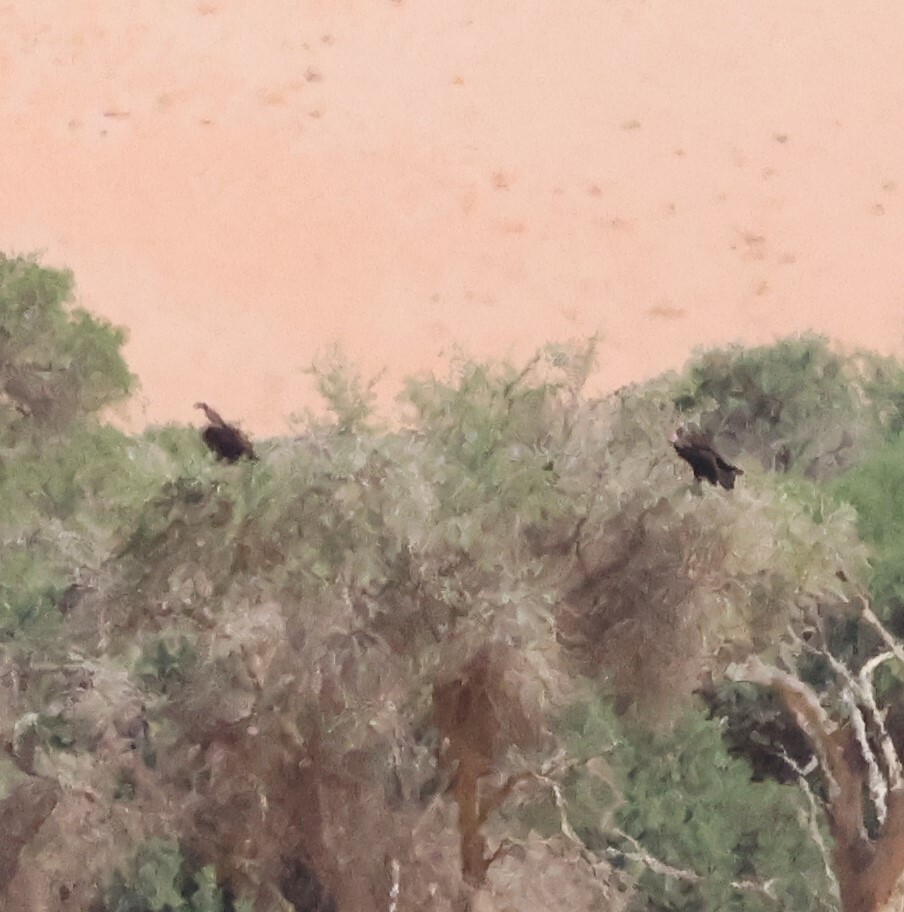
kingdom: Animalia
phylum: Chordata
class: Aves
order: Accipitriformes
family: Accipitridae
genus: Torgos
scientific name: Torgos tracheliotos
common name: Lappet-faced vulture
